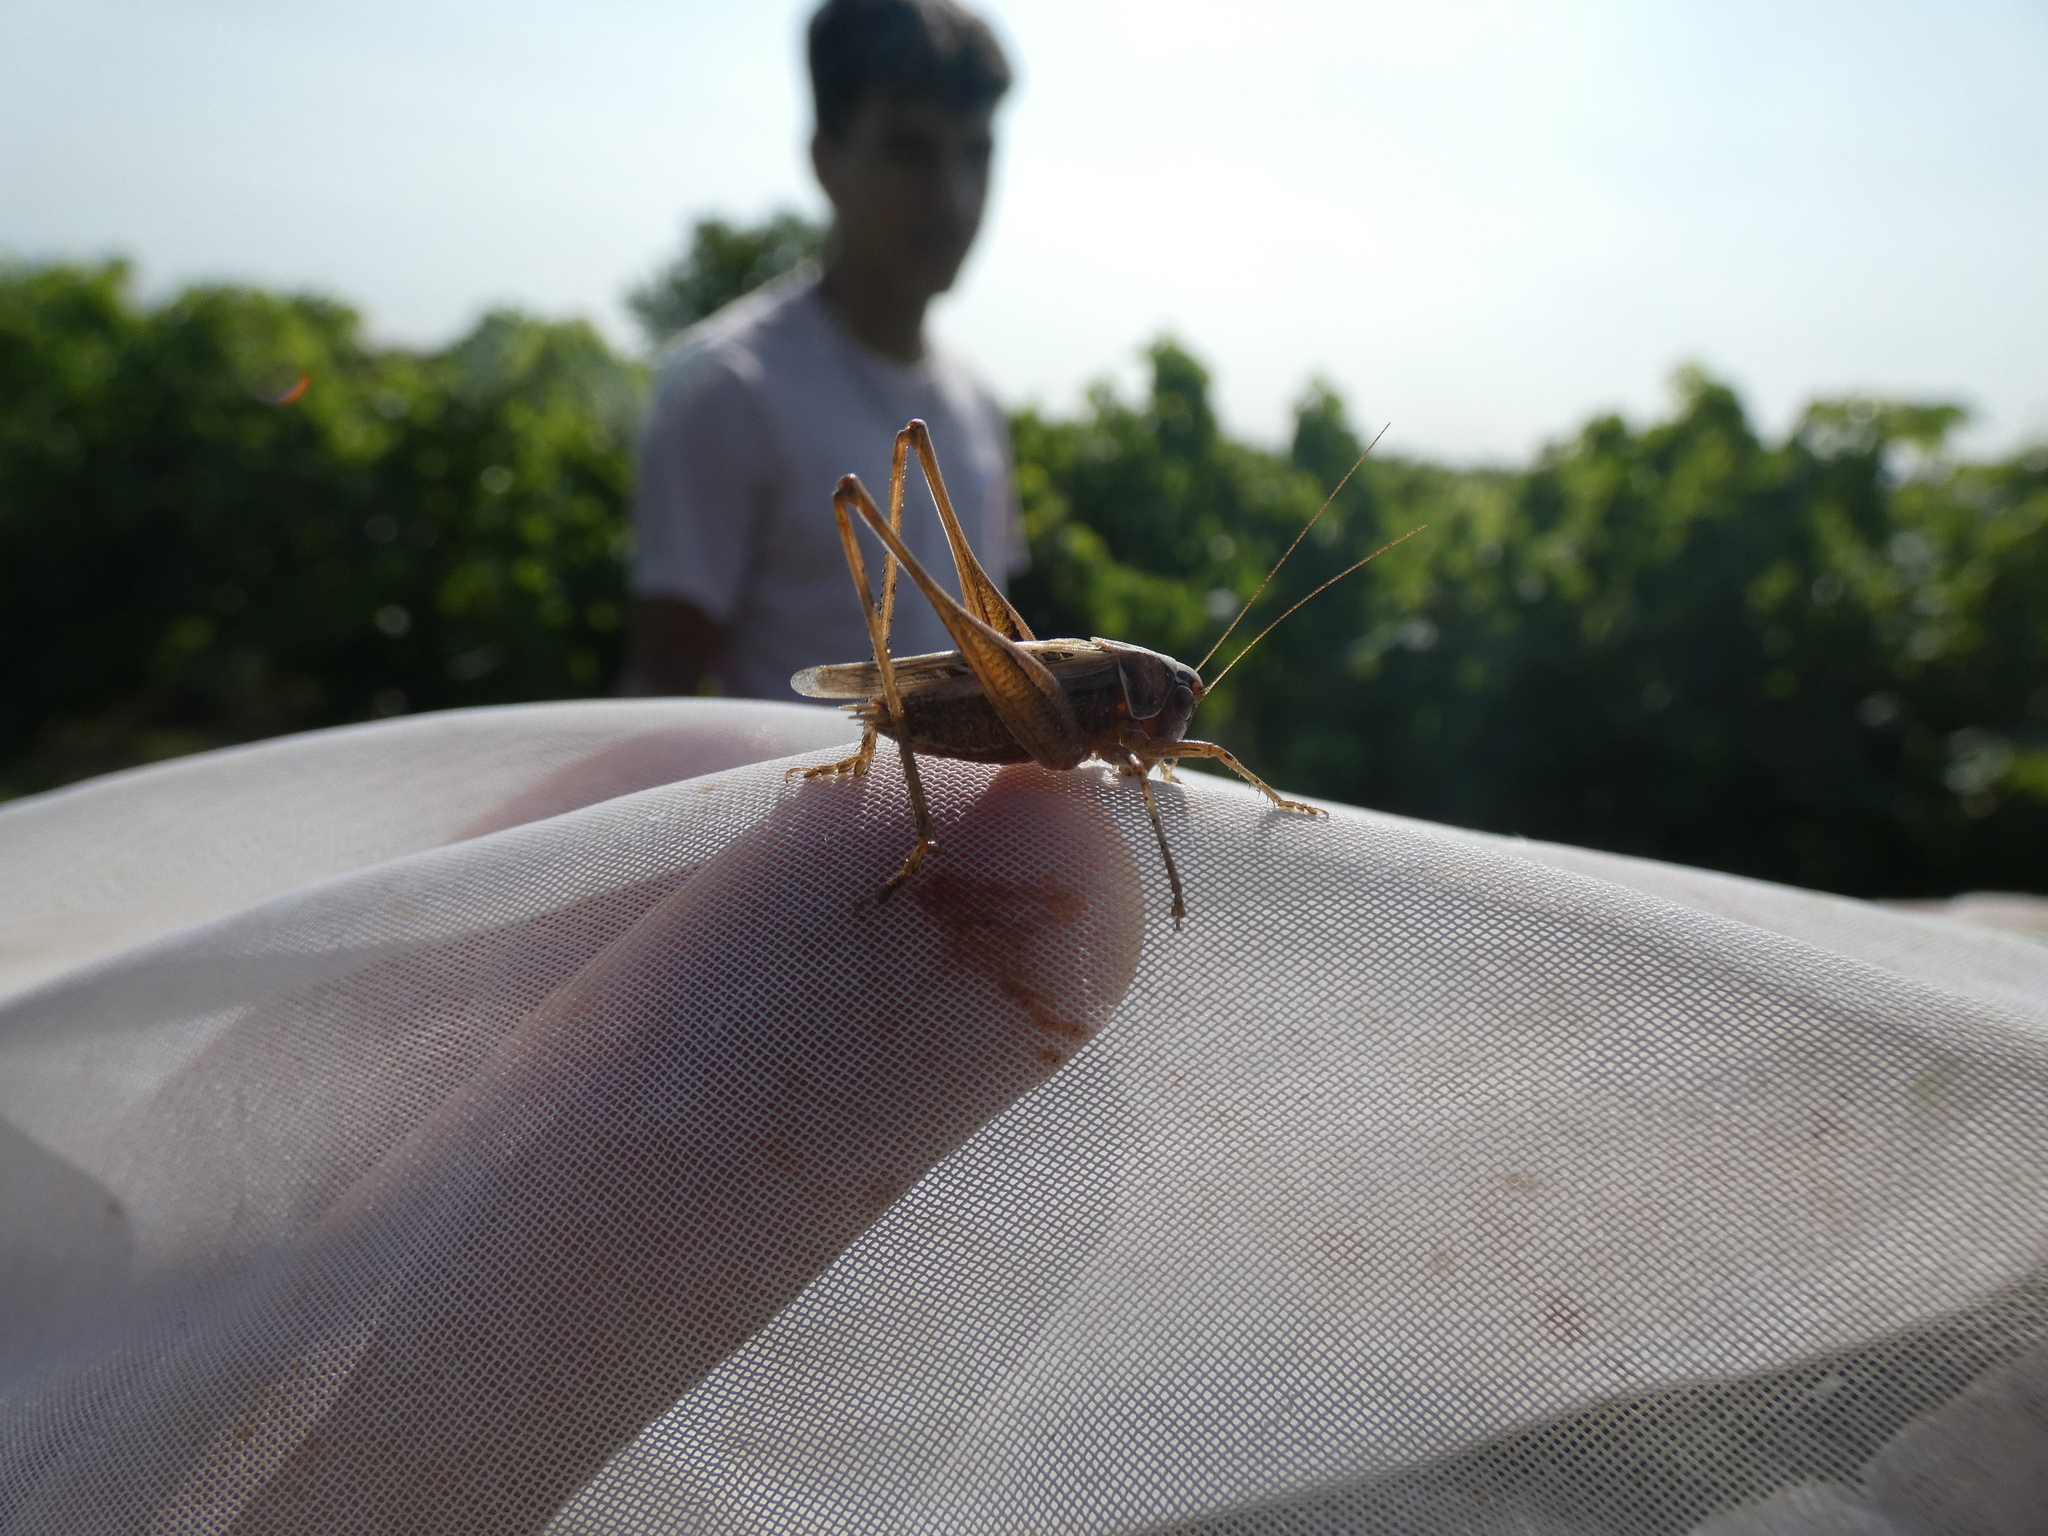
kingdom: Animalia
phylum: Arthropoda
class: Insecta
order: Orthoptera
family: Tettigoniidae
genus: Tessellana
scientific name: Tessellana tessellata
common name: Grasshopper
